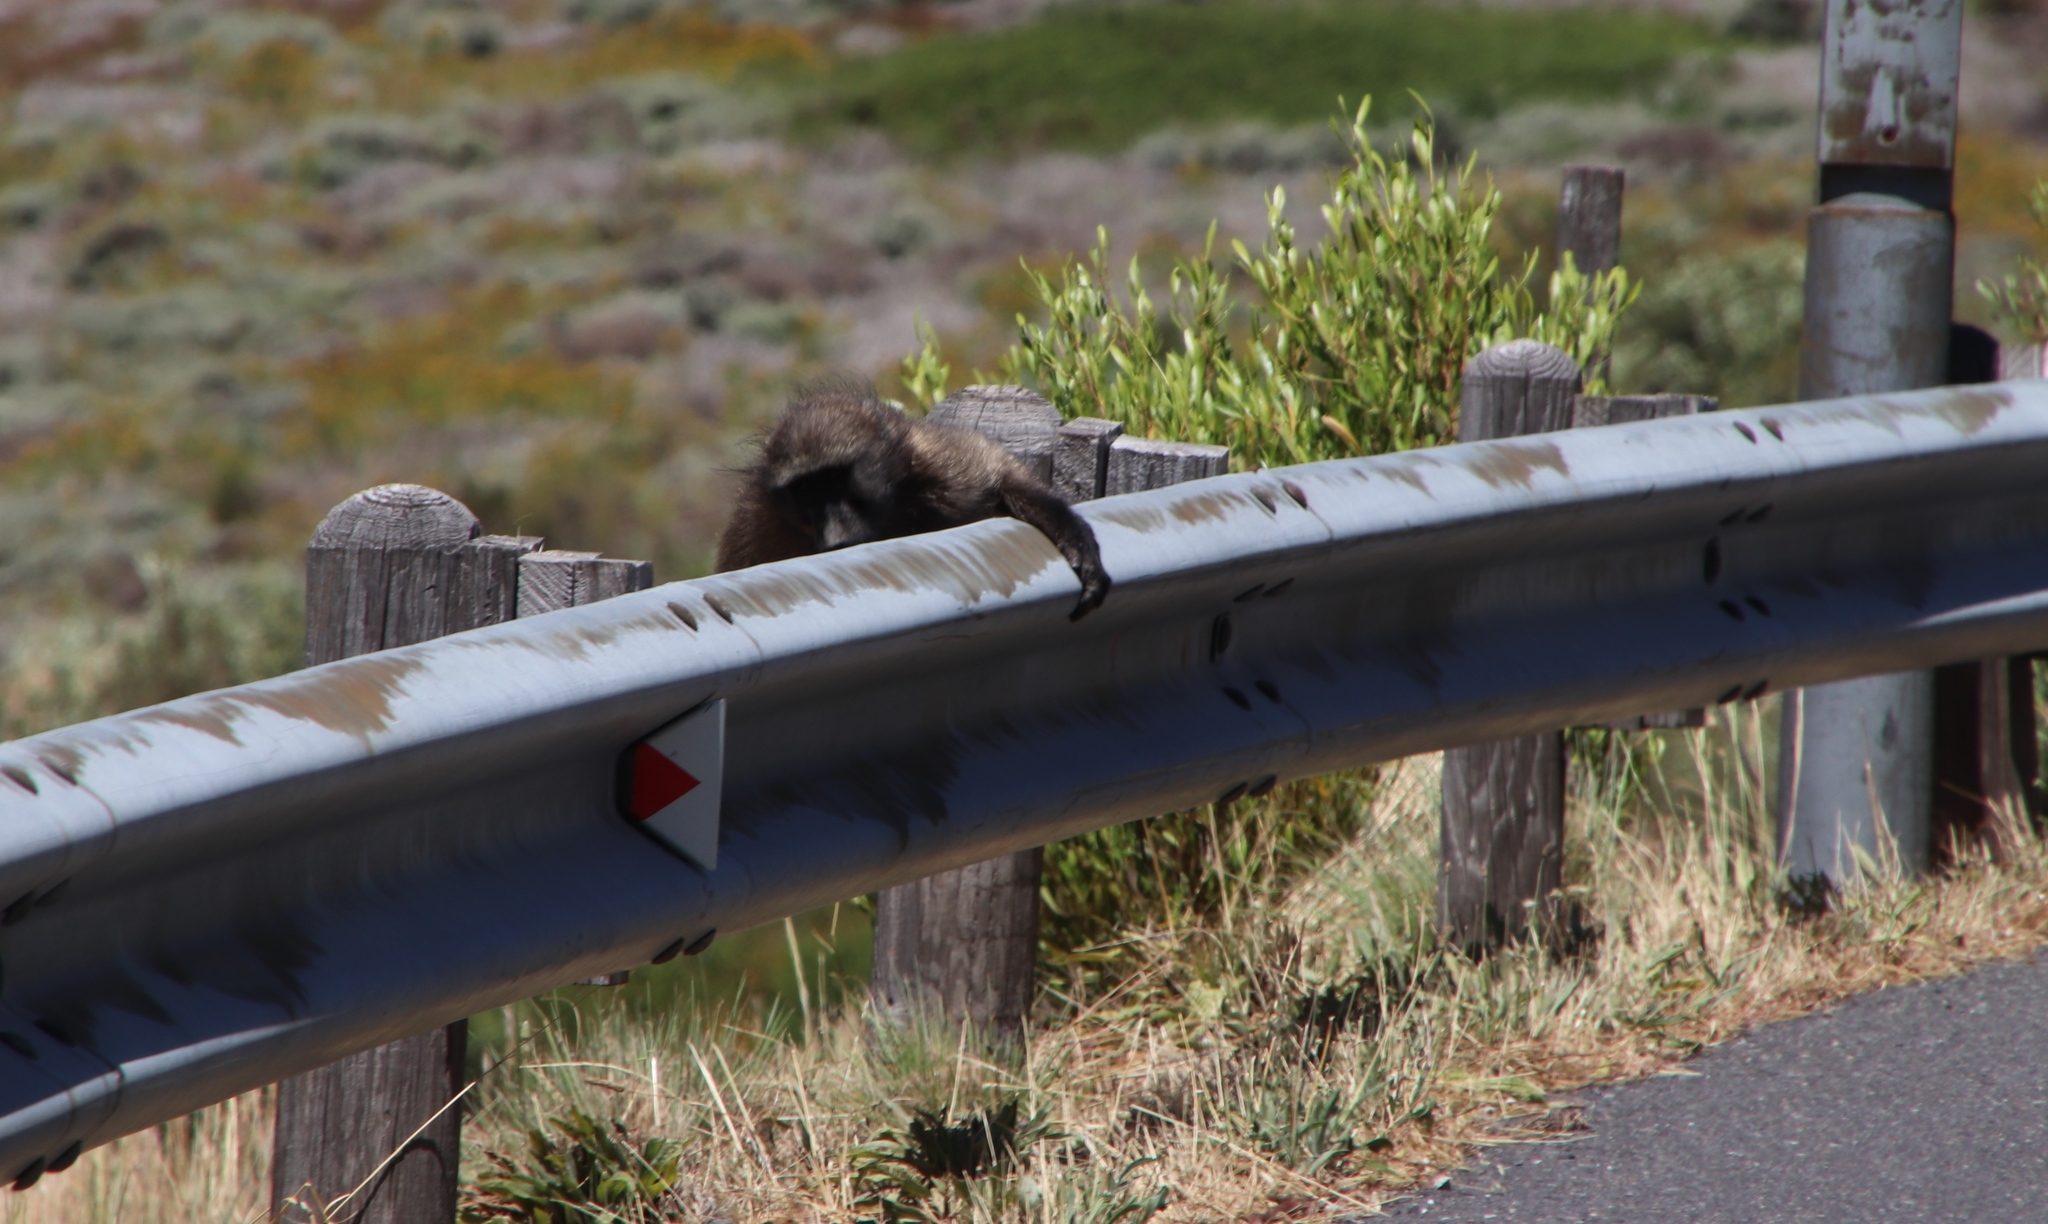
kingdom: Animalia
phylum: Chordata
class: Mammalia
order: Primates
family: Cercopithecidae
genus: Papio
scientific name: Papio ursinus
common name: Chacma baboon
